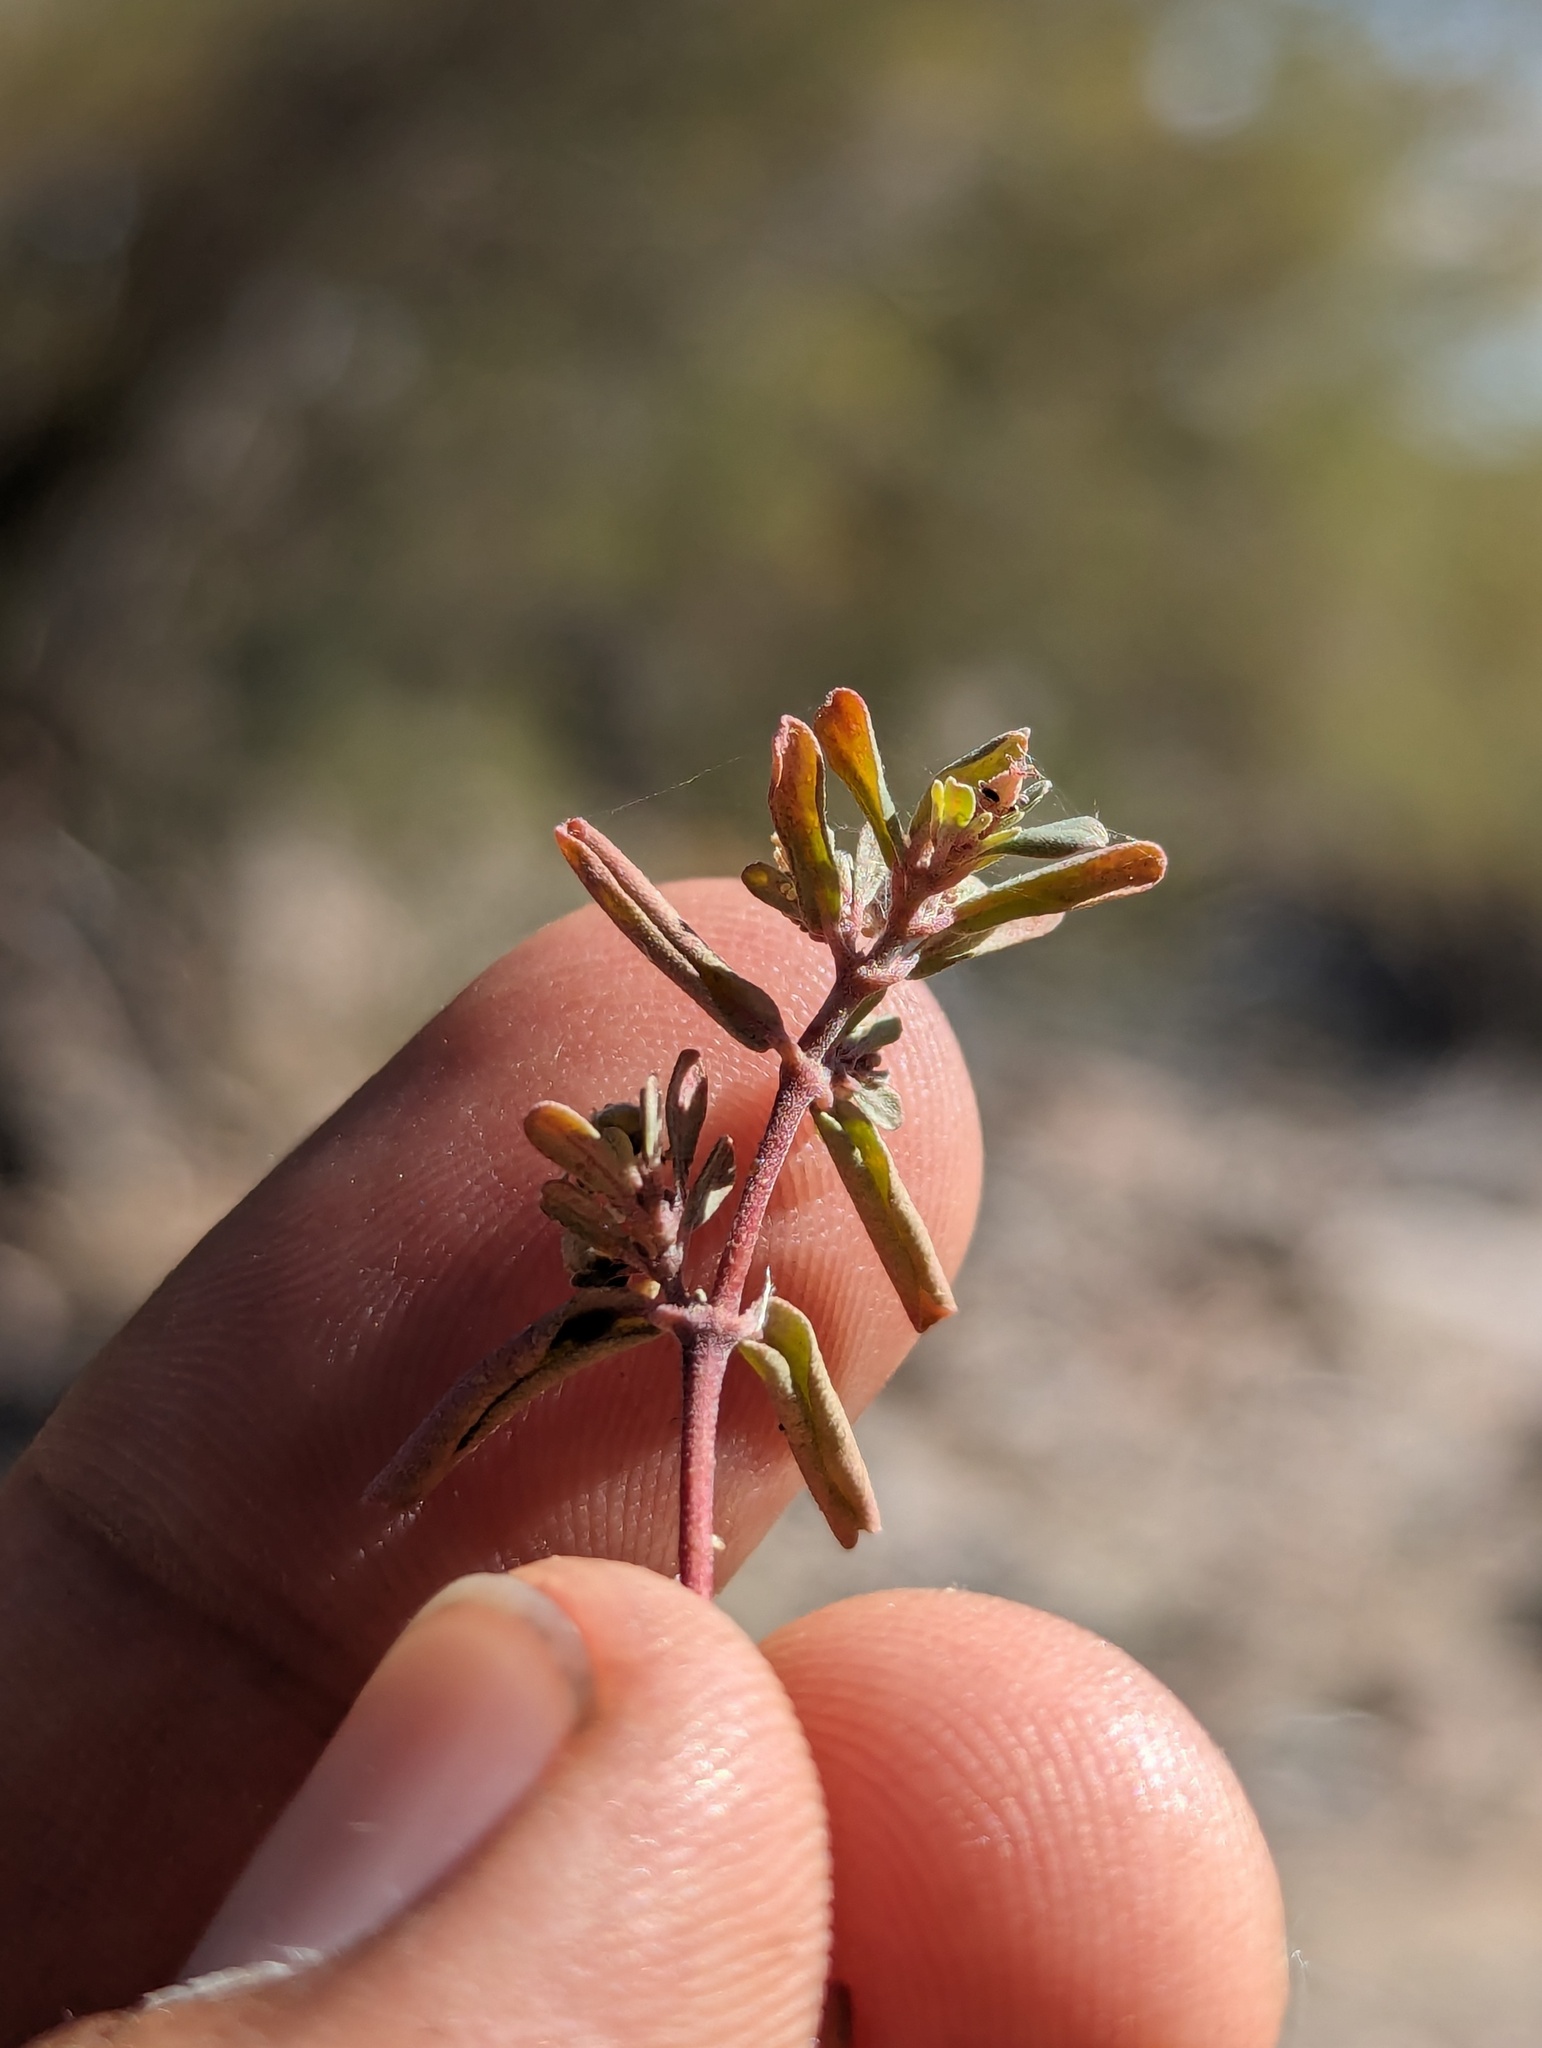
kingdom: Plantae
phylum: Tracheophyta
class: Magnoliopsida
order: Malpighiales
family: Euphorbiaceae
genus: Euphorbia
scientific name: Euphorbia pediculifera
